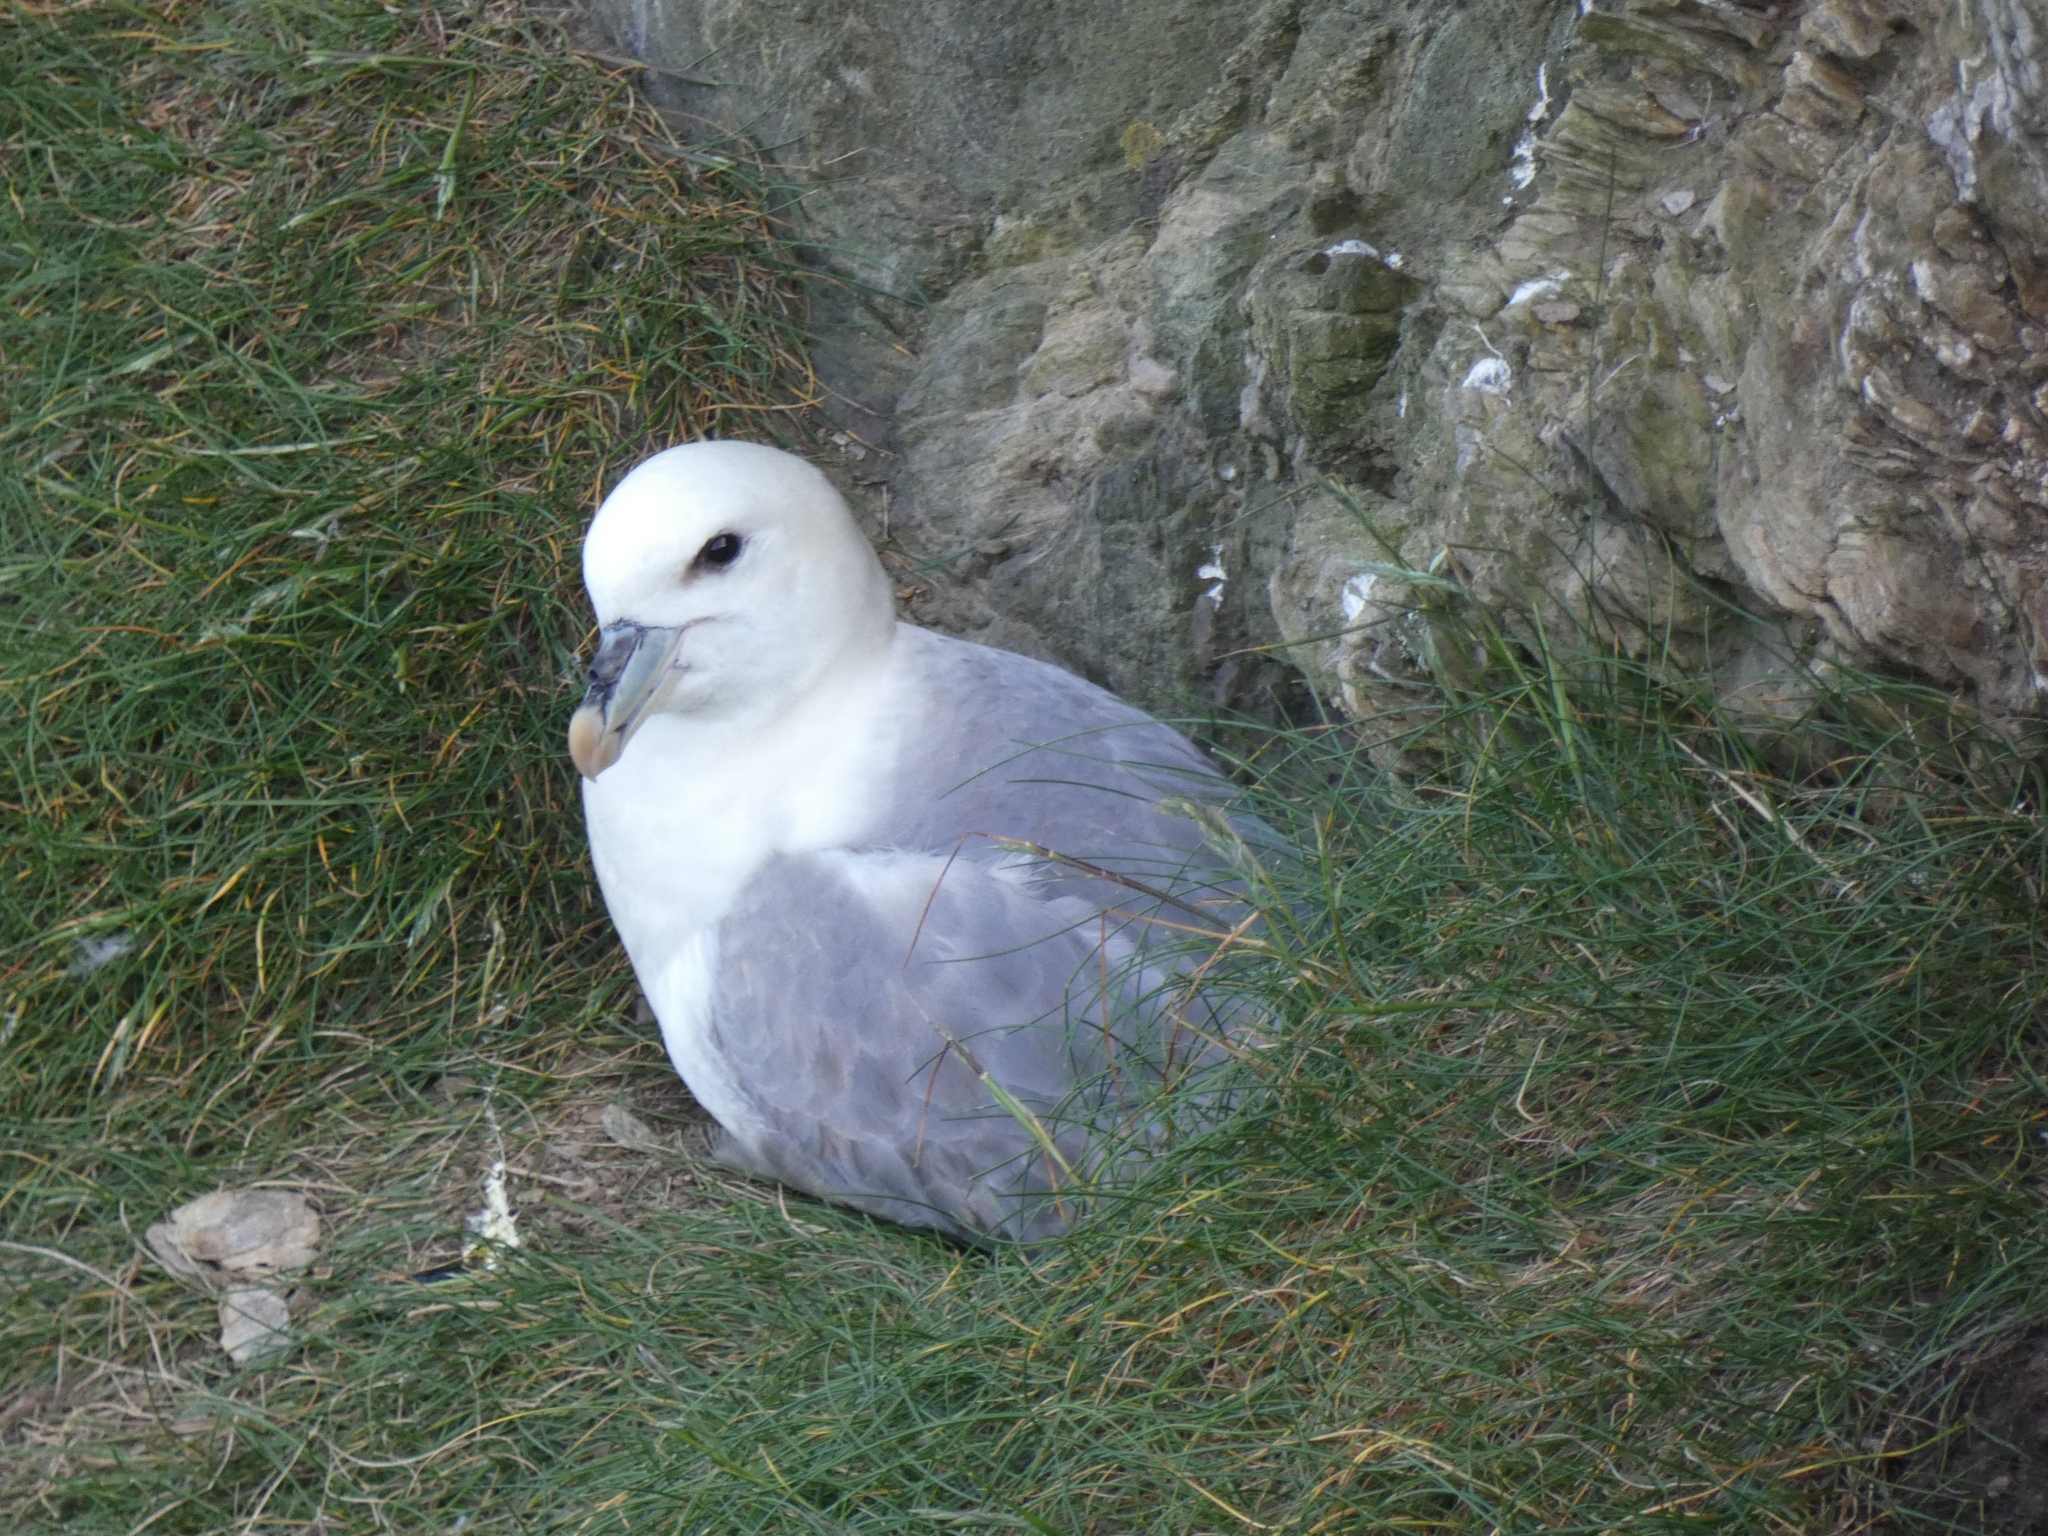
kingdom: Animalia
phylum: Chordata
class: Aves
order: Procellariiformes
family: Procellariidae
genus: Fulmarus
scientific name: Fulmarus glacialis
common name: Northern fulmar
